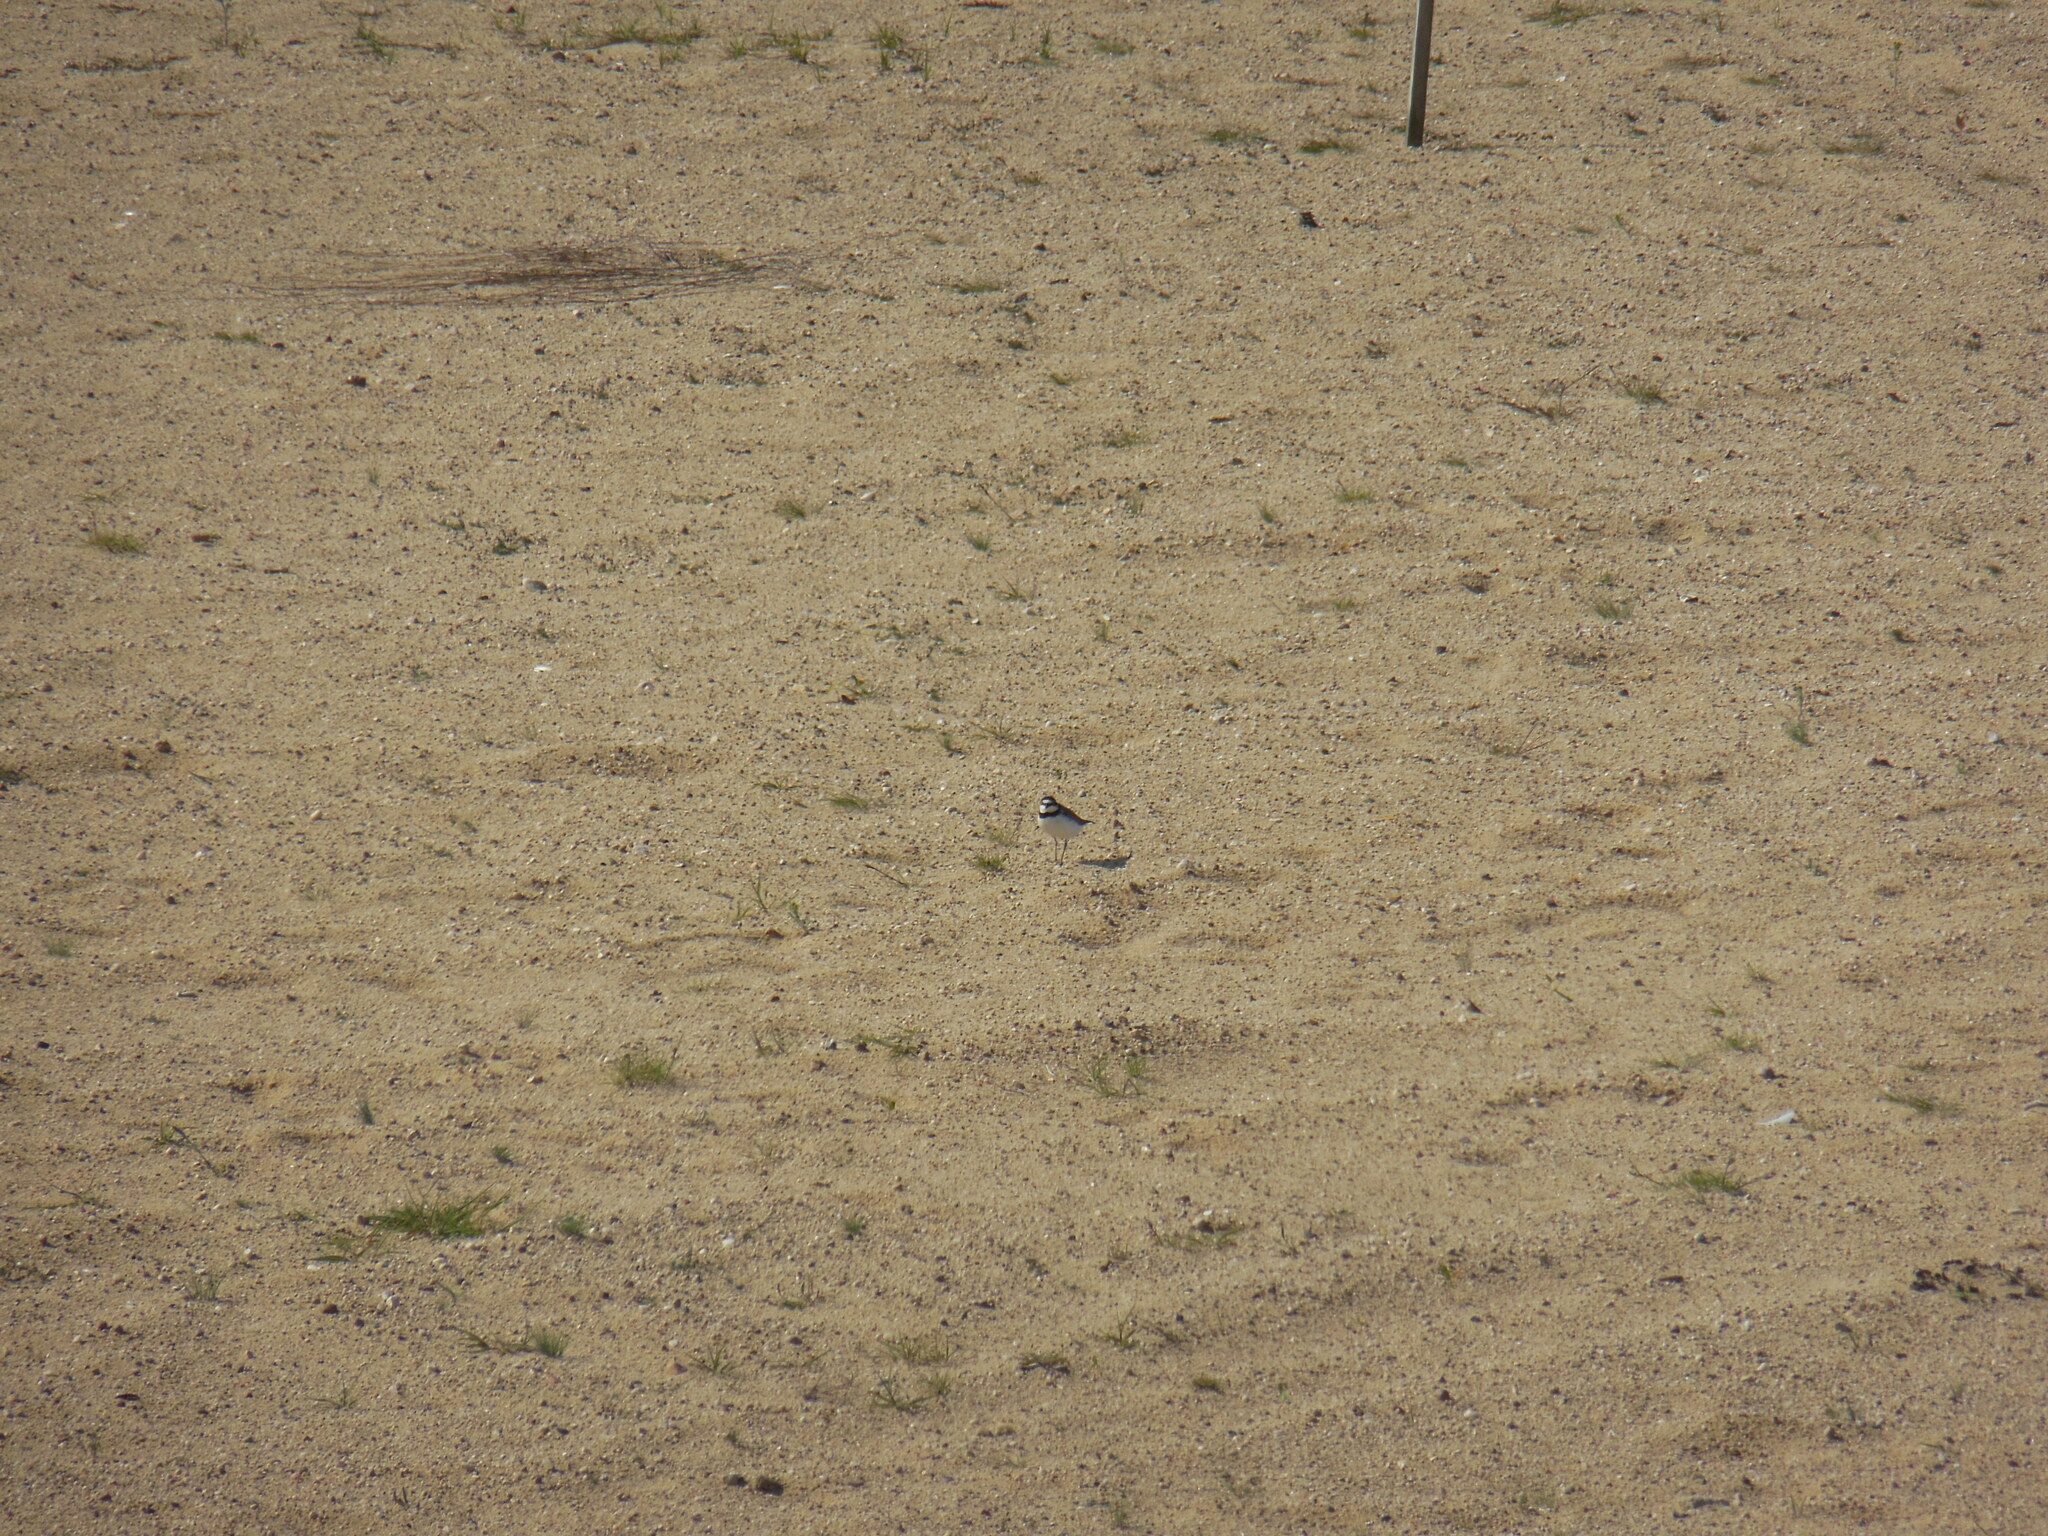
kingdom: Animalia
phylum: Chordata
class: Aves
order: Charadriiformes
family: Charadriidae
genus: Charadrius
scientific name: Charadrius dubius
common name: Little ringed plover
